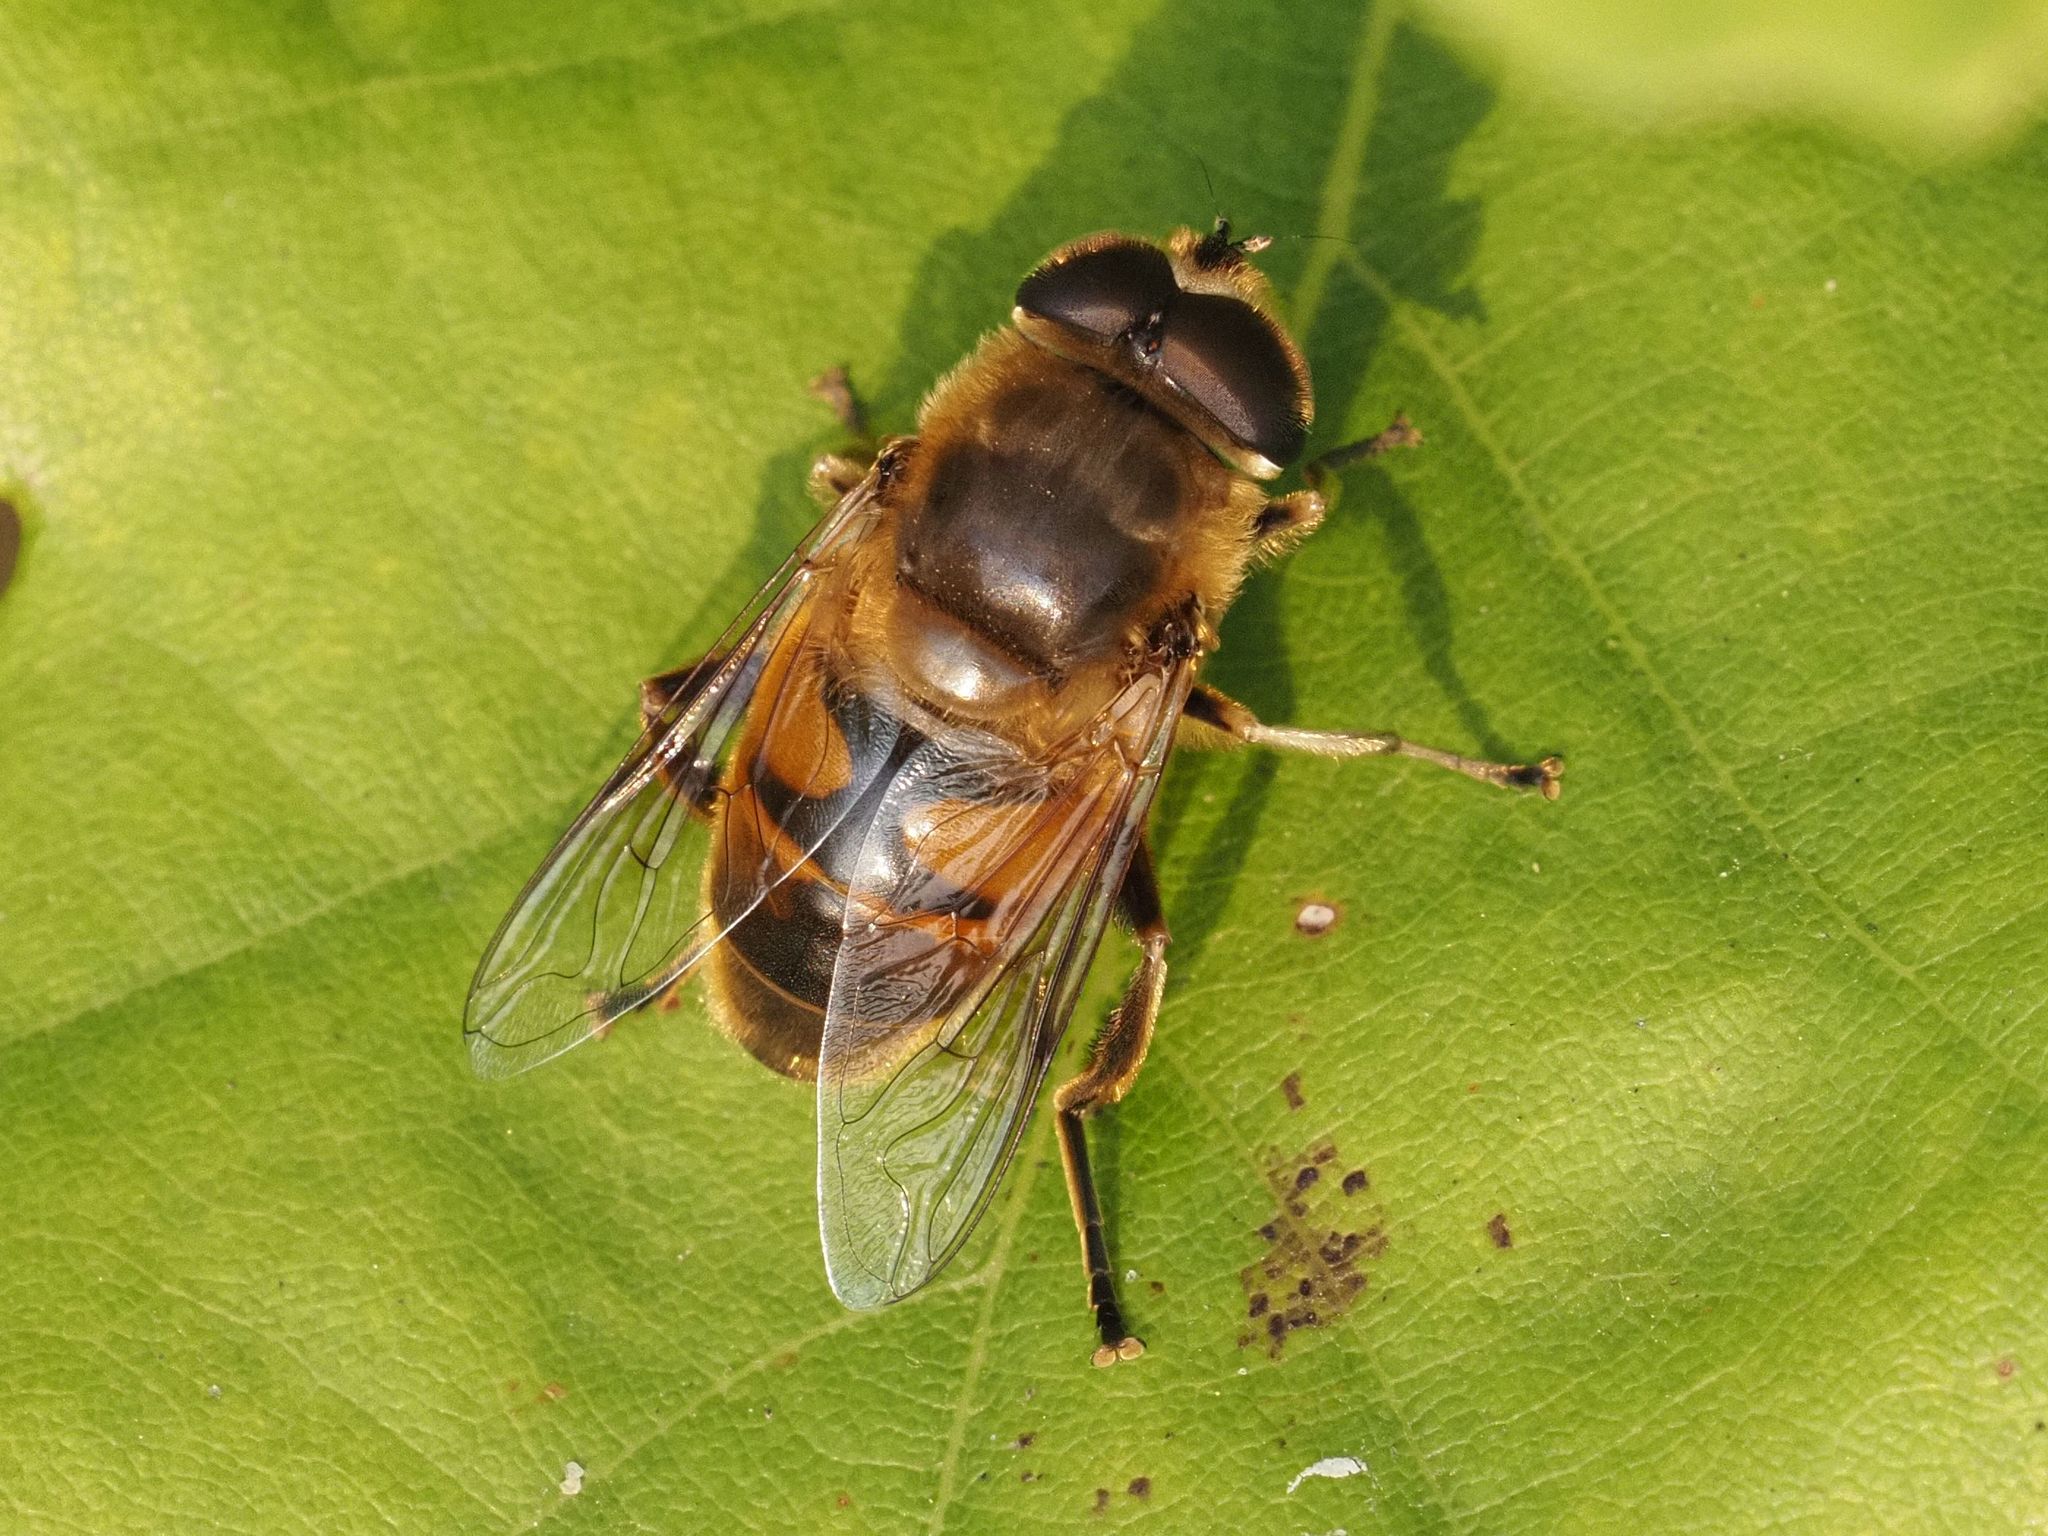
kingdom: Animalia
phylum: Arthropoda
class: Insecta
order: Diptera
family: Syrphidae
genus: Eristalis
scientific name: Eristalis tenax
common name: Drone fly
